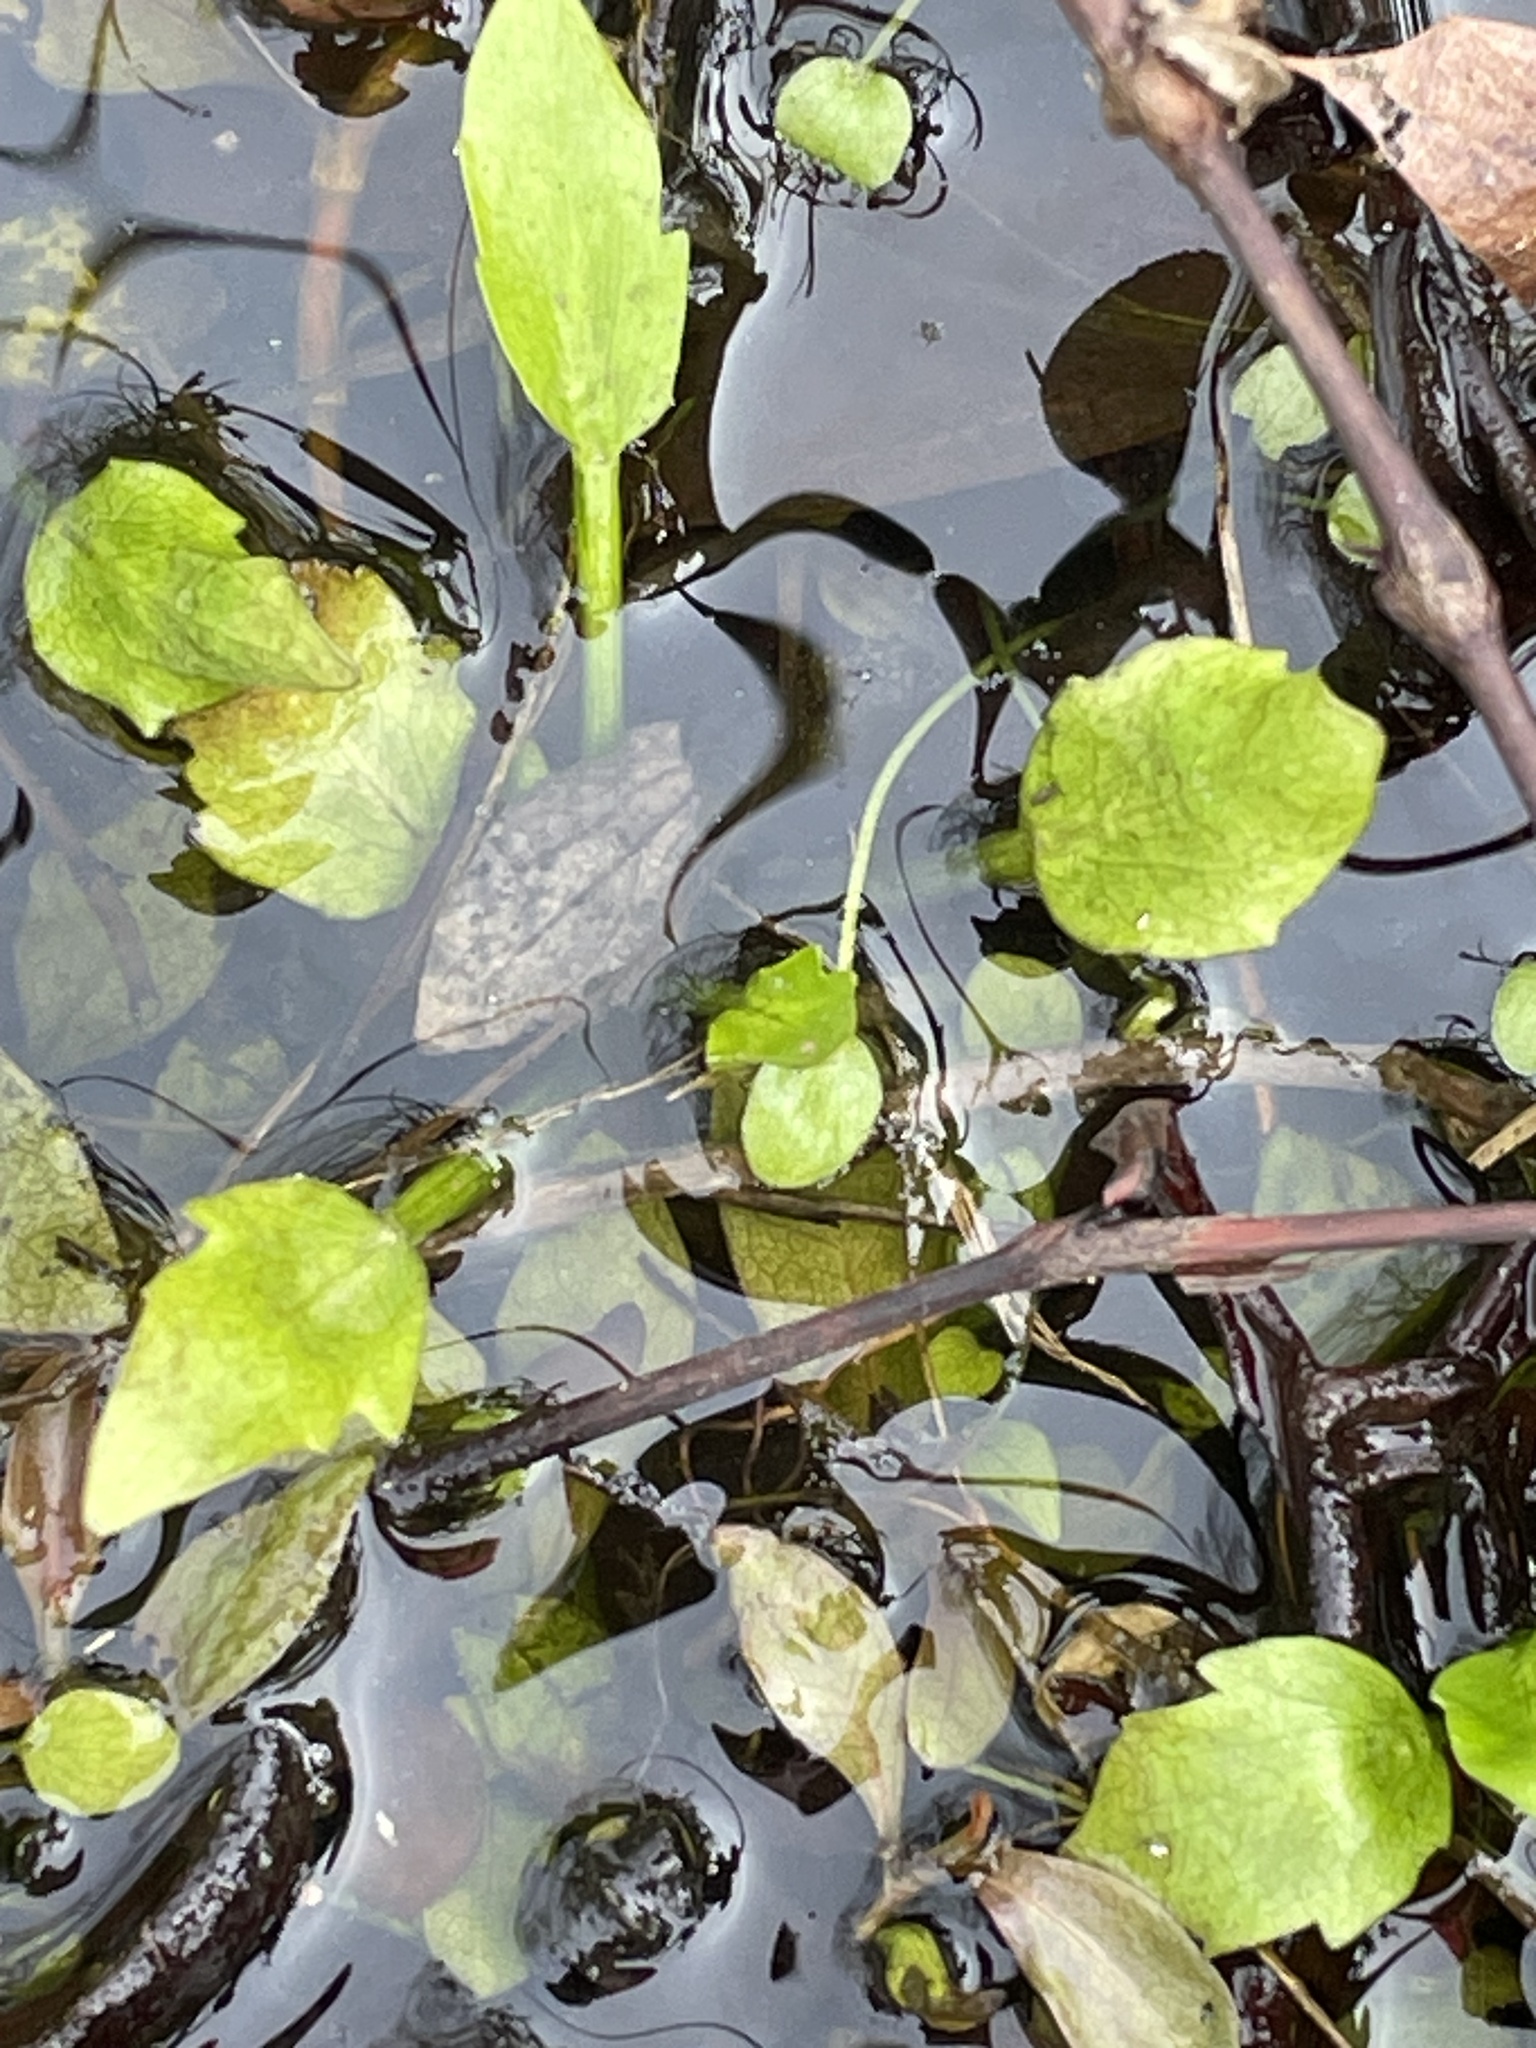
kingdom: Plantae
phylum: Tracheophyta
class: Magnoliopsida
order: Apiales
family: Apiaceae
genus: Eryngium
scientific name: Eryngium prostratum
